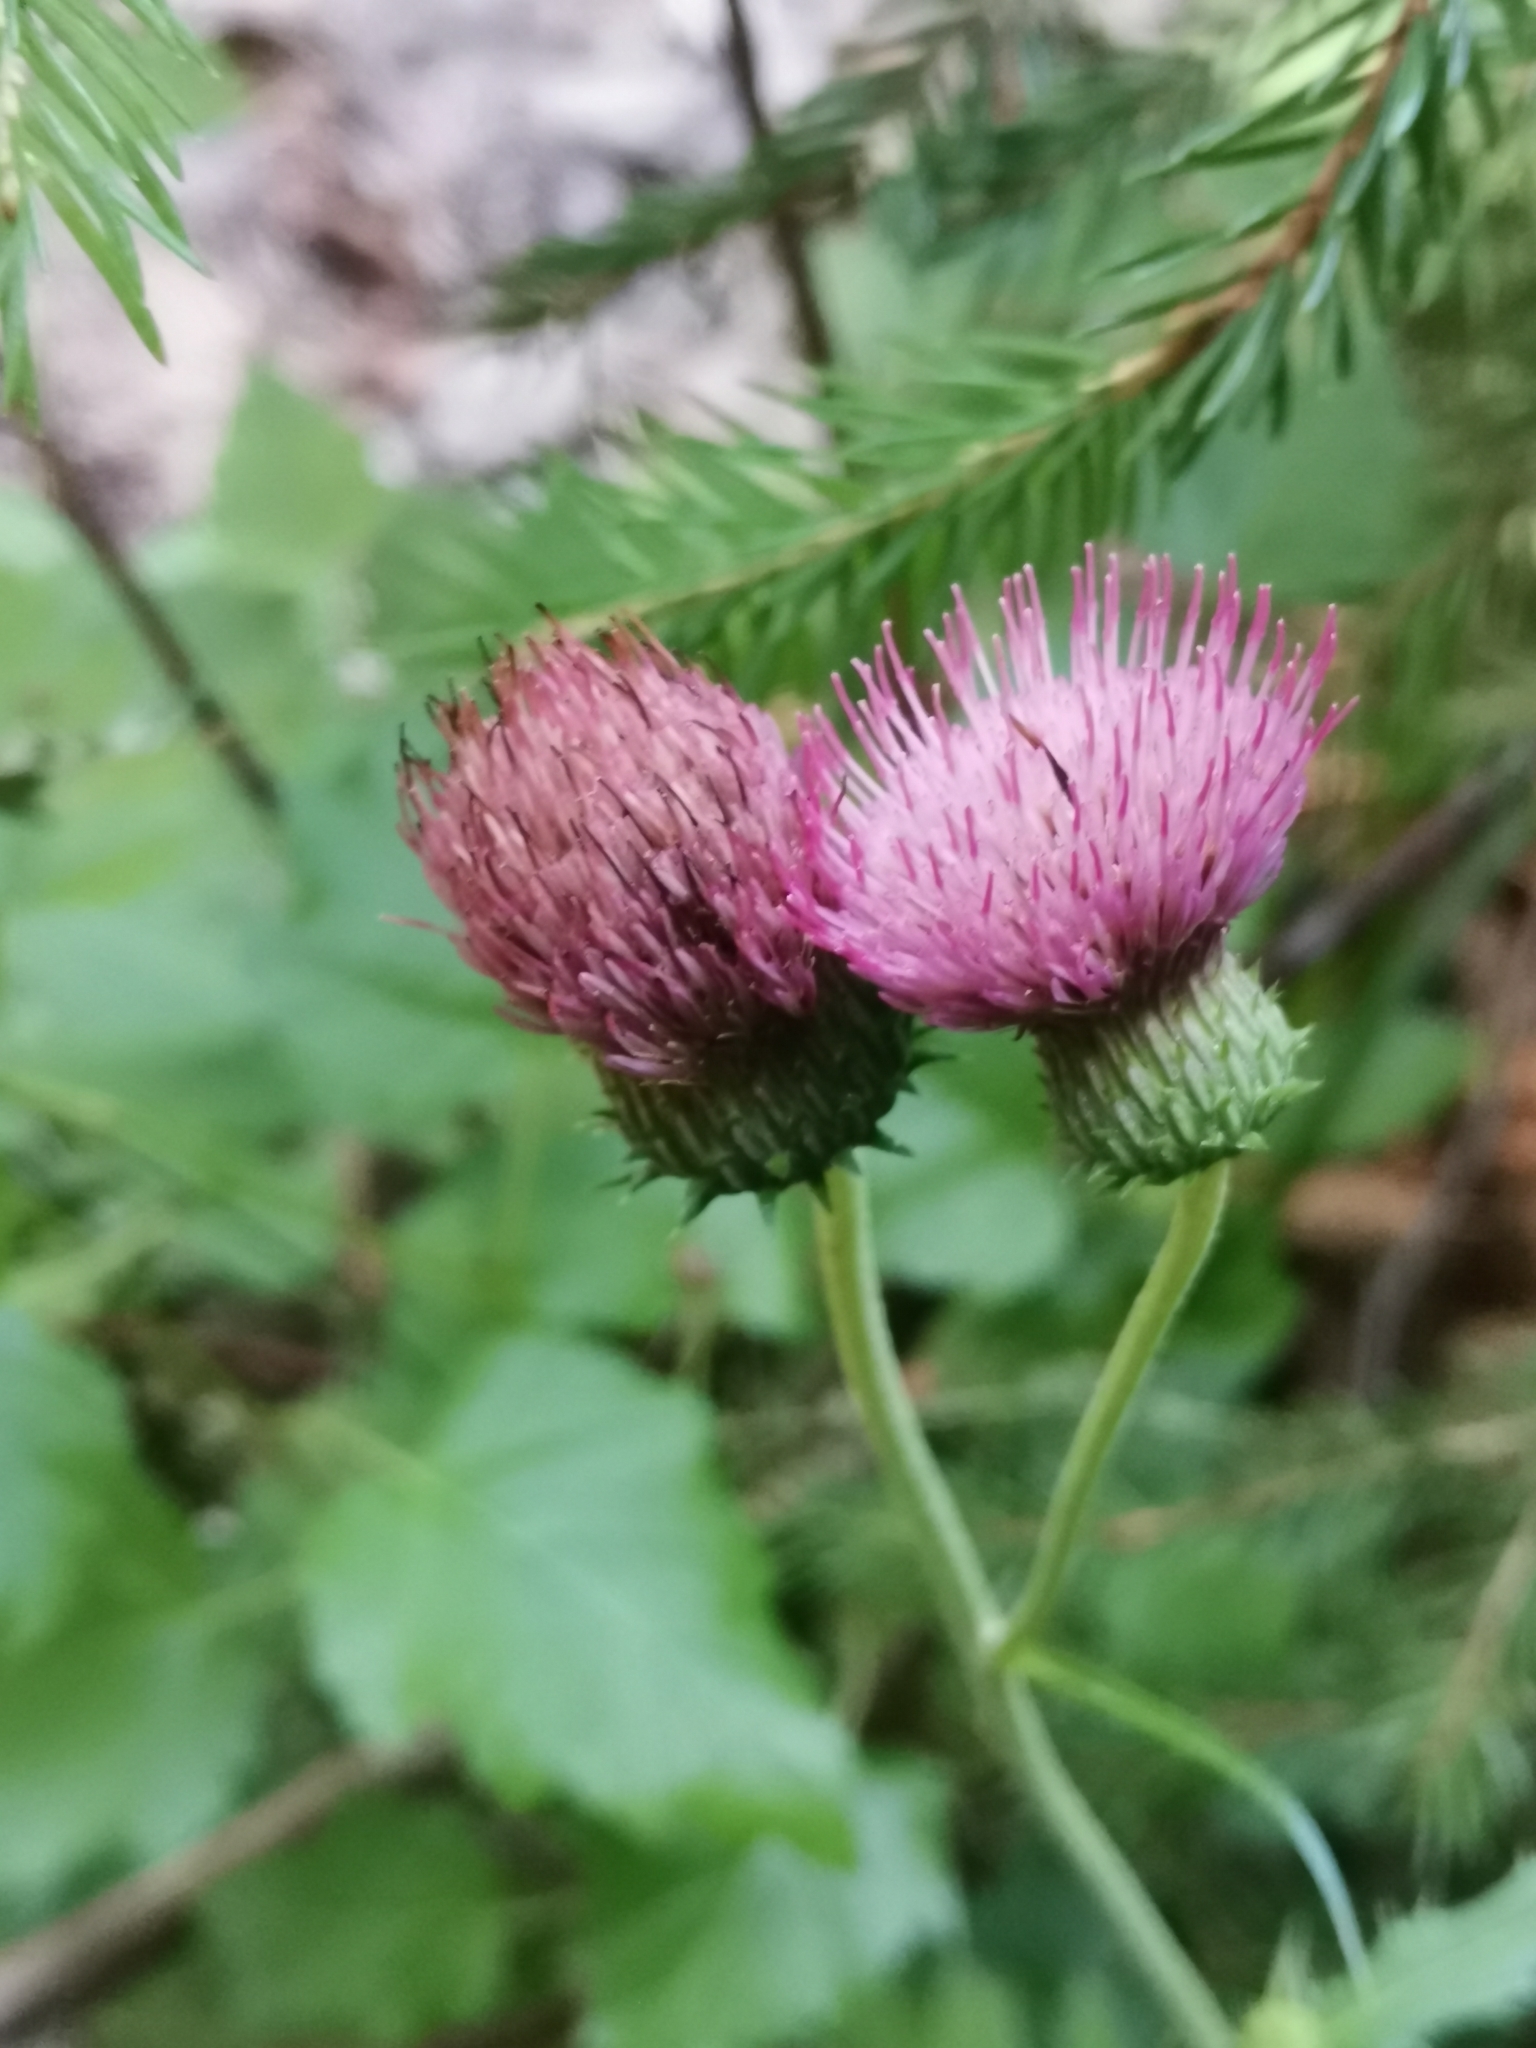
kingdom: Plantae
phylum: Tracheophyta
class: Magnoliopsida
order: Asterales
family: Asteraceae
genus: Cirsium
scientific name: Cirsium linkianum
